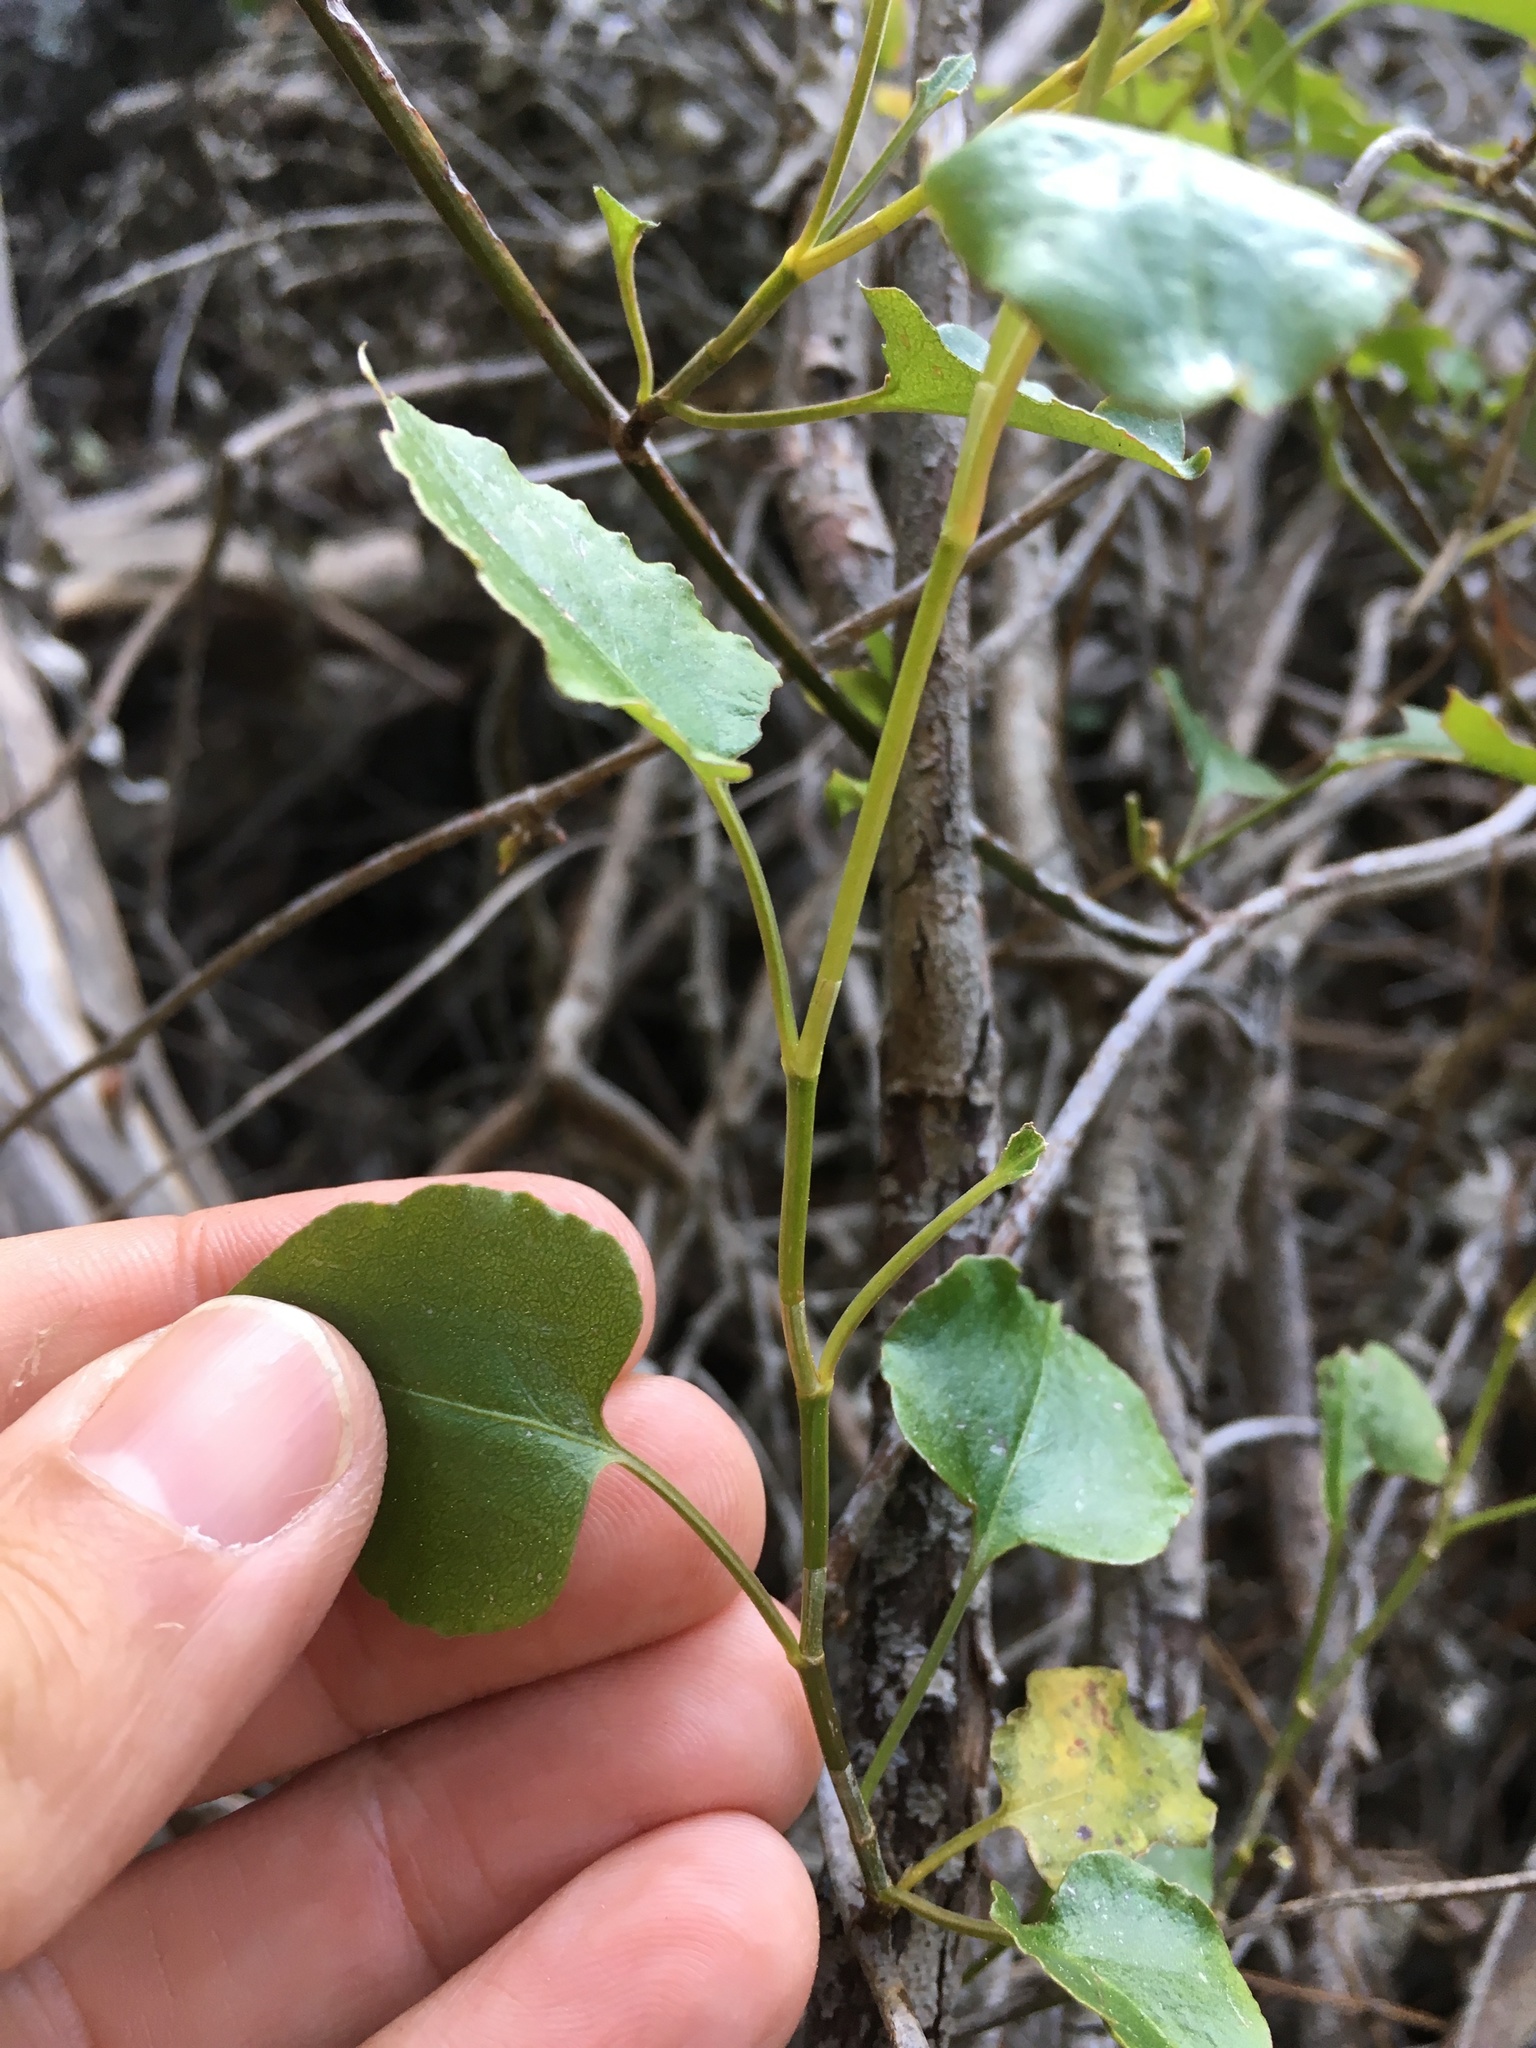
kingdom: Plantae
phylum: Tracheophyta
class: Magnoliopsida
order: Caryophyllales
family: Polygonaceae
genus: Muehlenbeckia
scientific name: Muehlenbeckia australis
